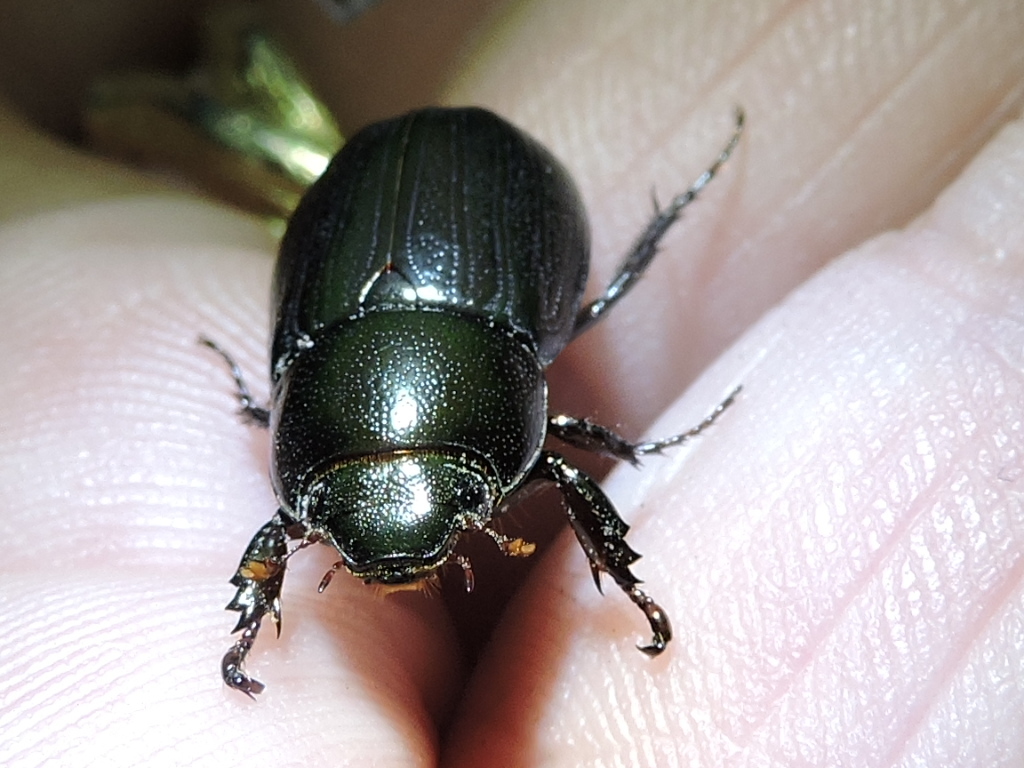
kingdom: Animalia
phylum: Arthropoda
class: Insecta
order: Coleoptera
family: Scarabaeidae
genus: Dyscinetus
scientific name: Dyscinetus morator
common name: Rice beetle
